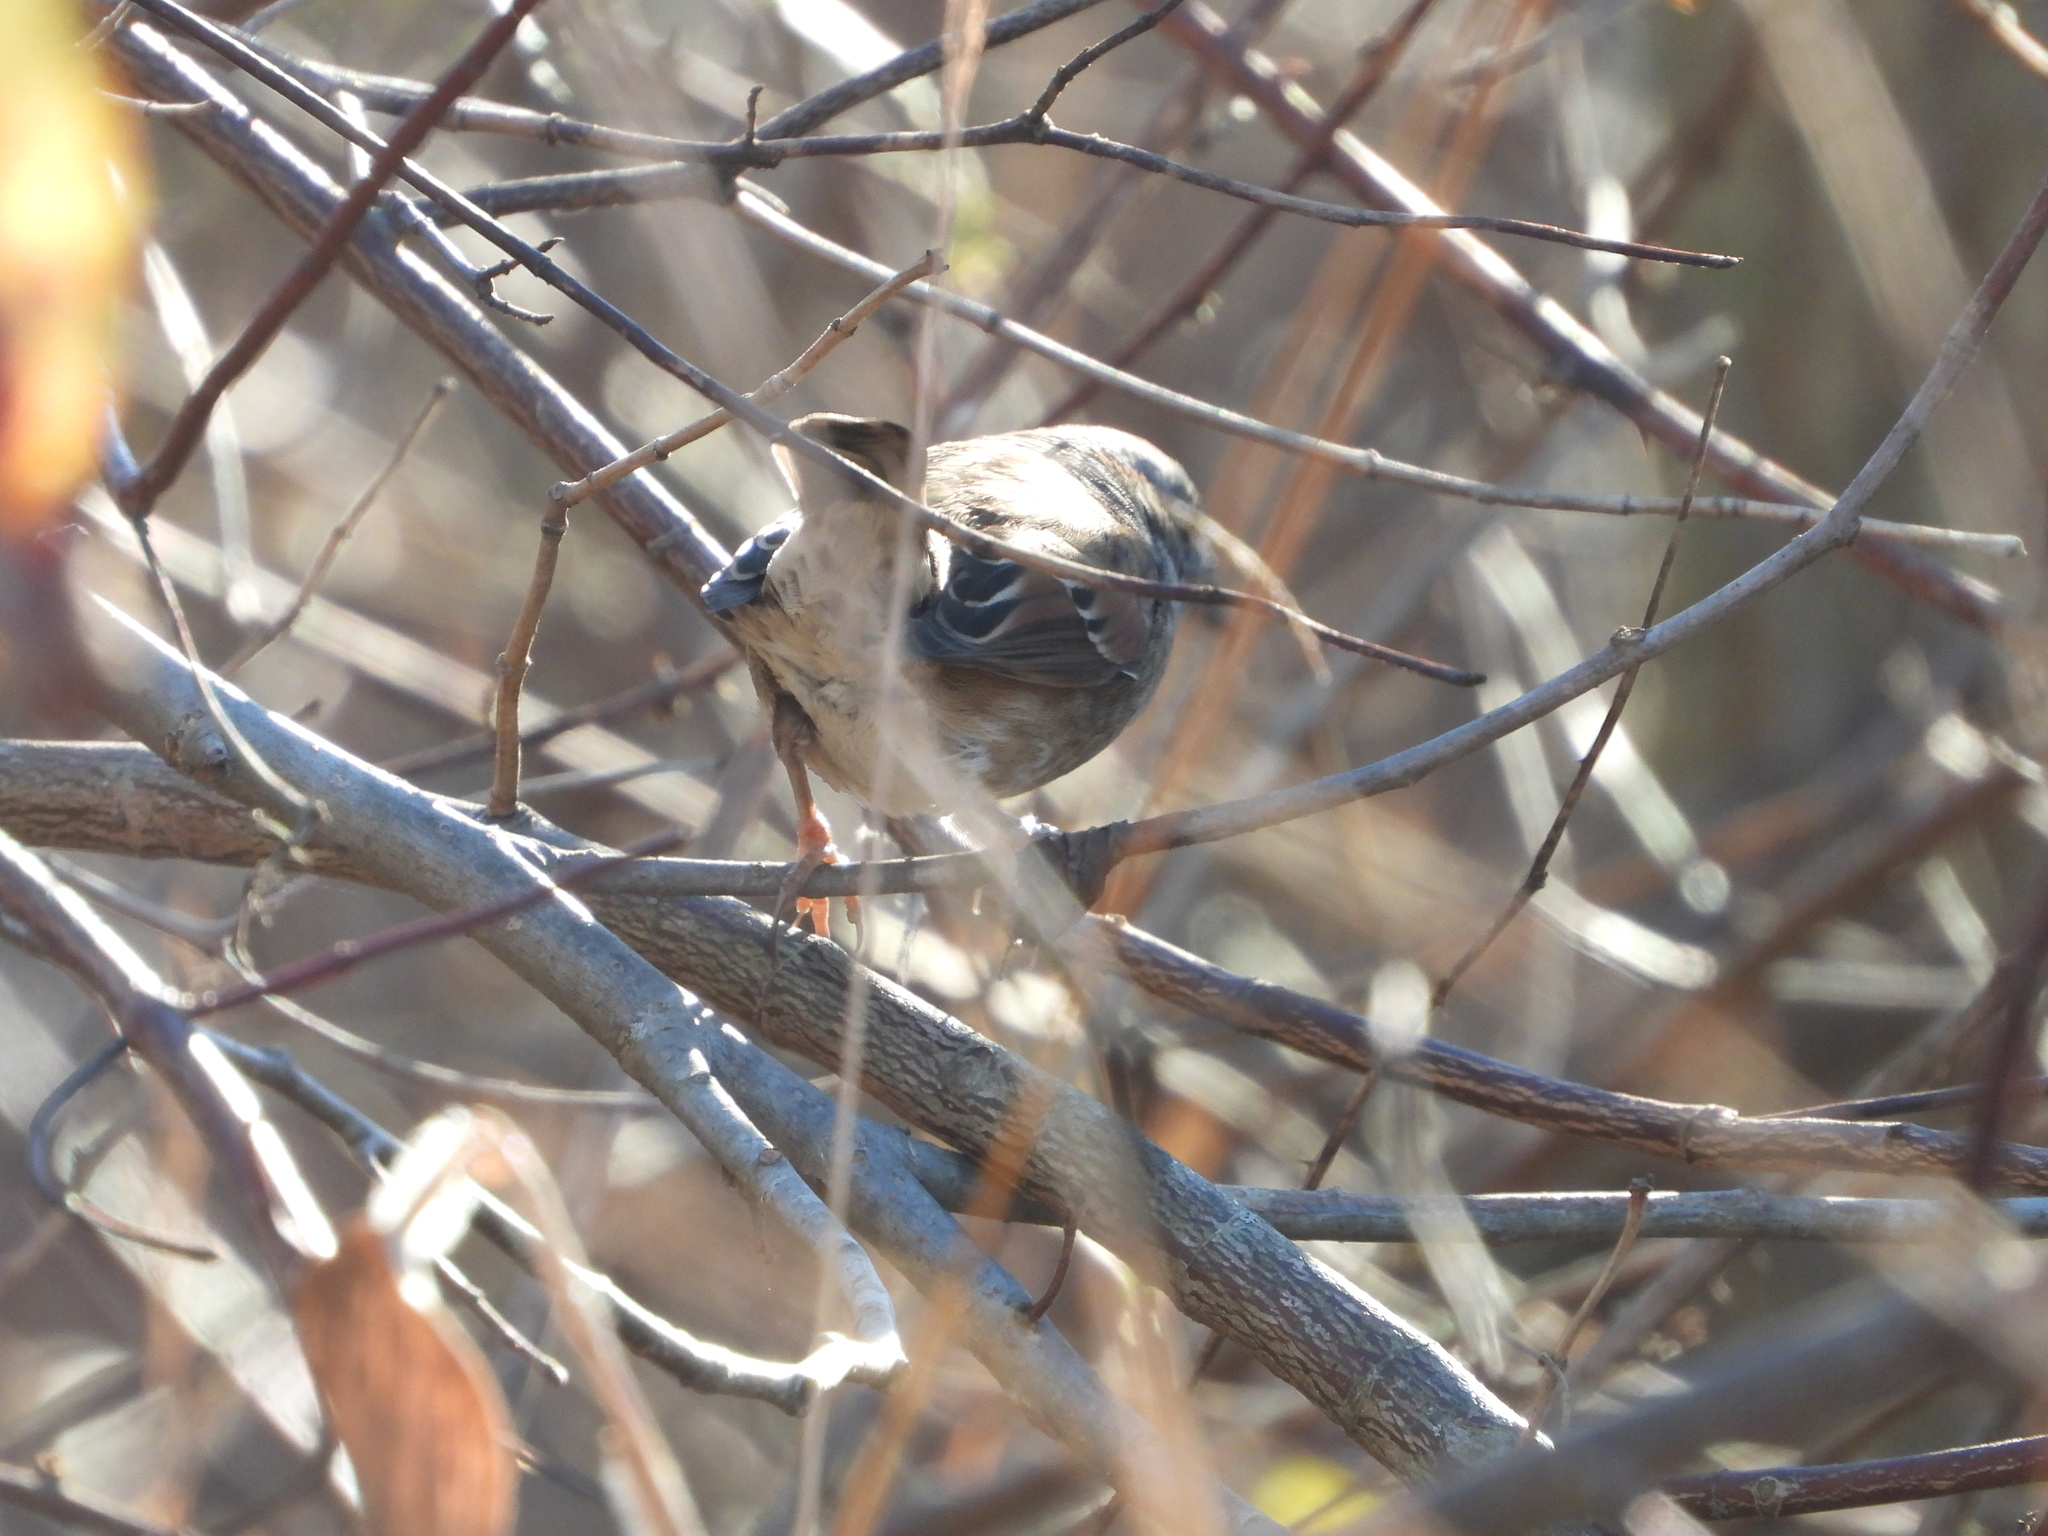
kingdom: Animalia
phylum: Chordata
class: Aves
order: Passeriformes
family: Passerellidae
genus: Melospiza
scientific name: Melospiza georgiana
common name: Swamp sparrow
